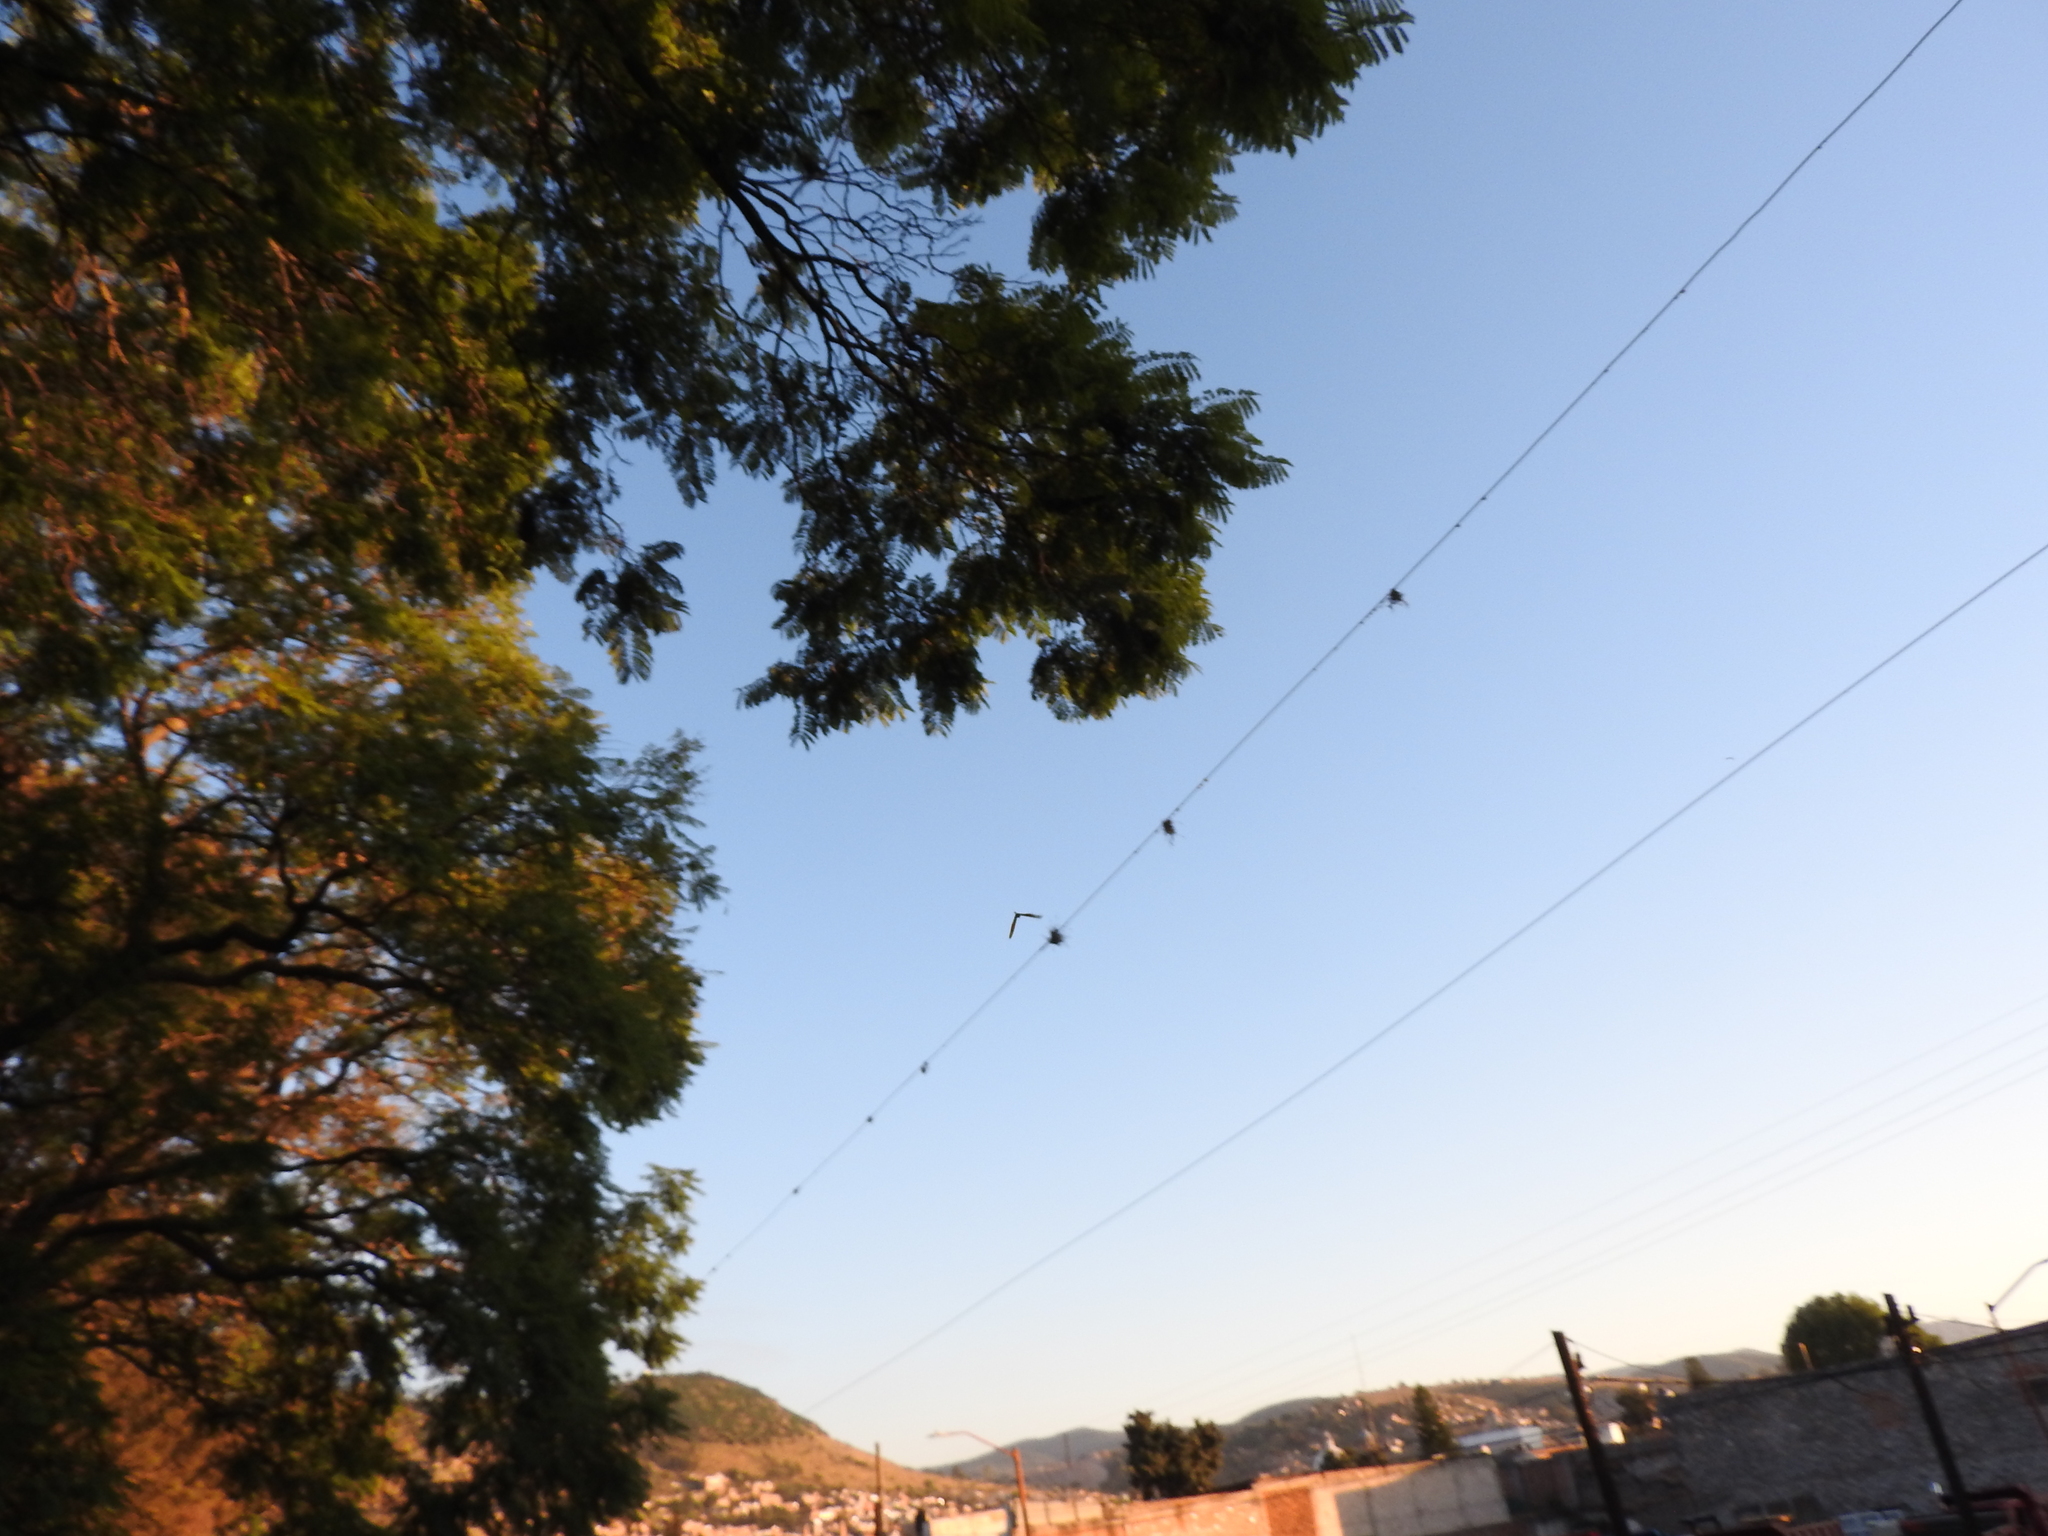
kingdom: Animalia
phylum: Arthropoda
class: Insecta
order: Lepidoptera
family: Nymphalidae
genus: Danaus
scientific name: Danaus plexippus
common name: Monarch
